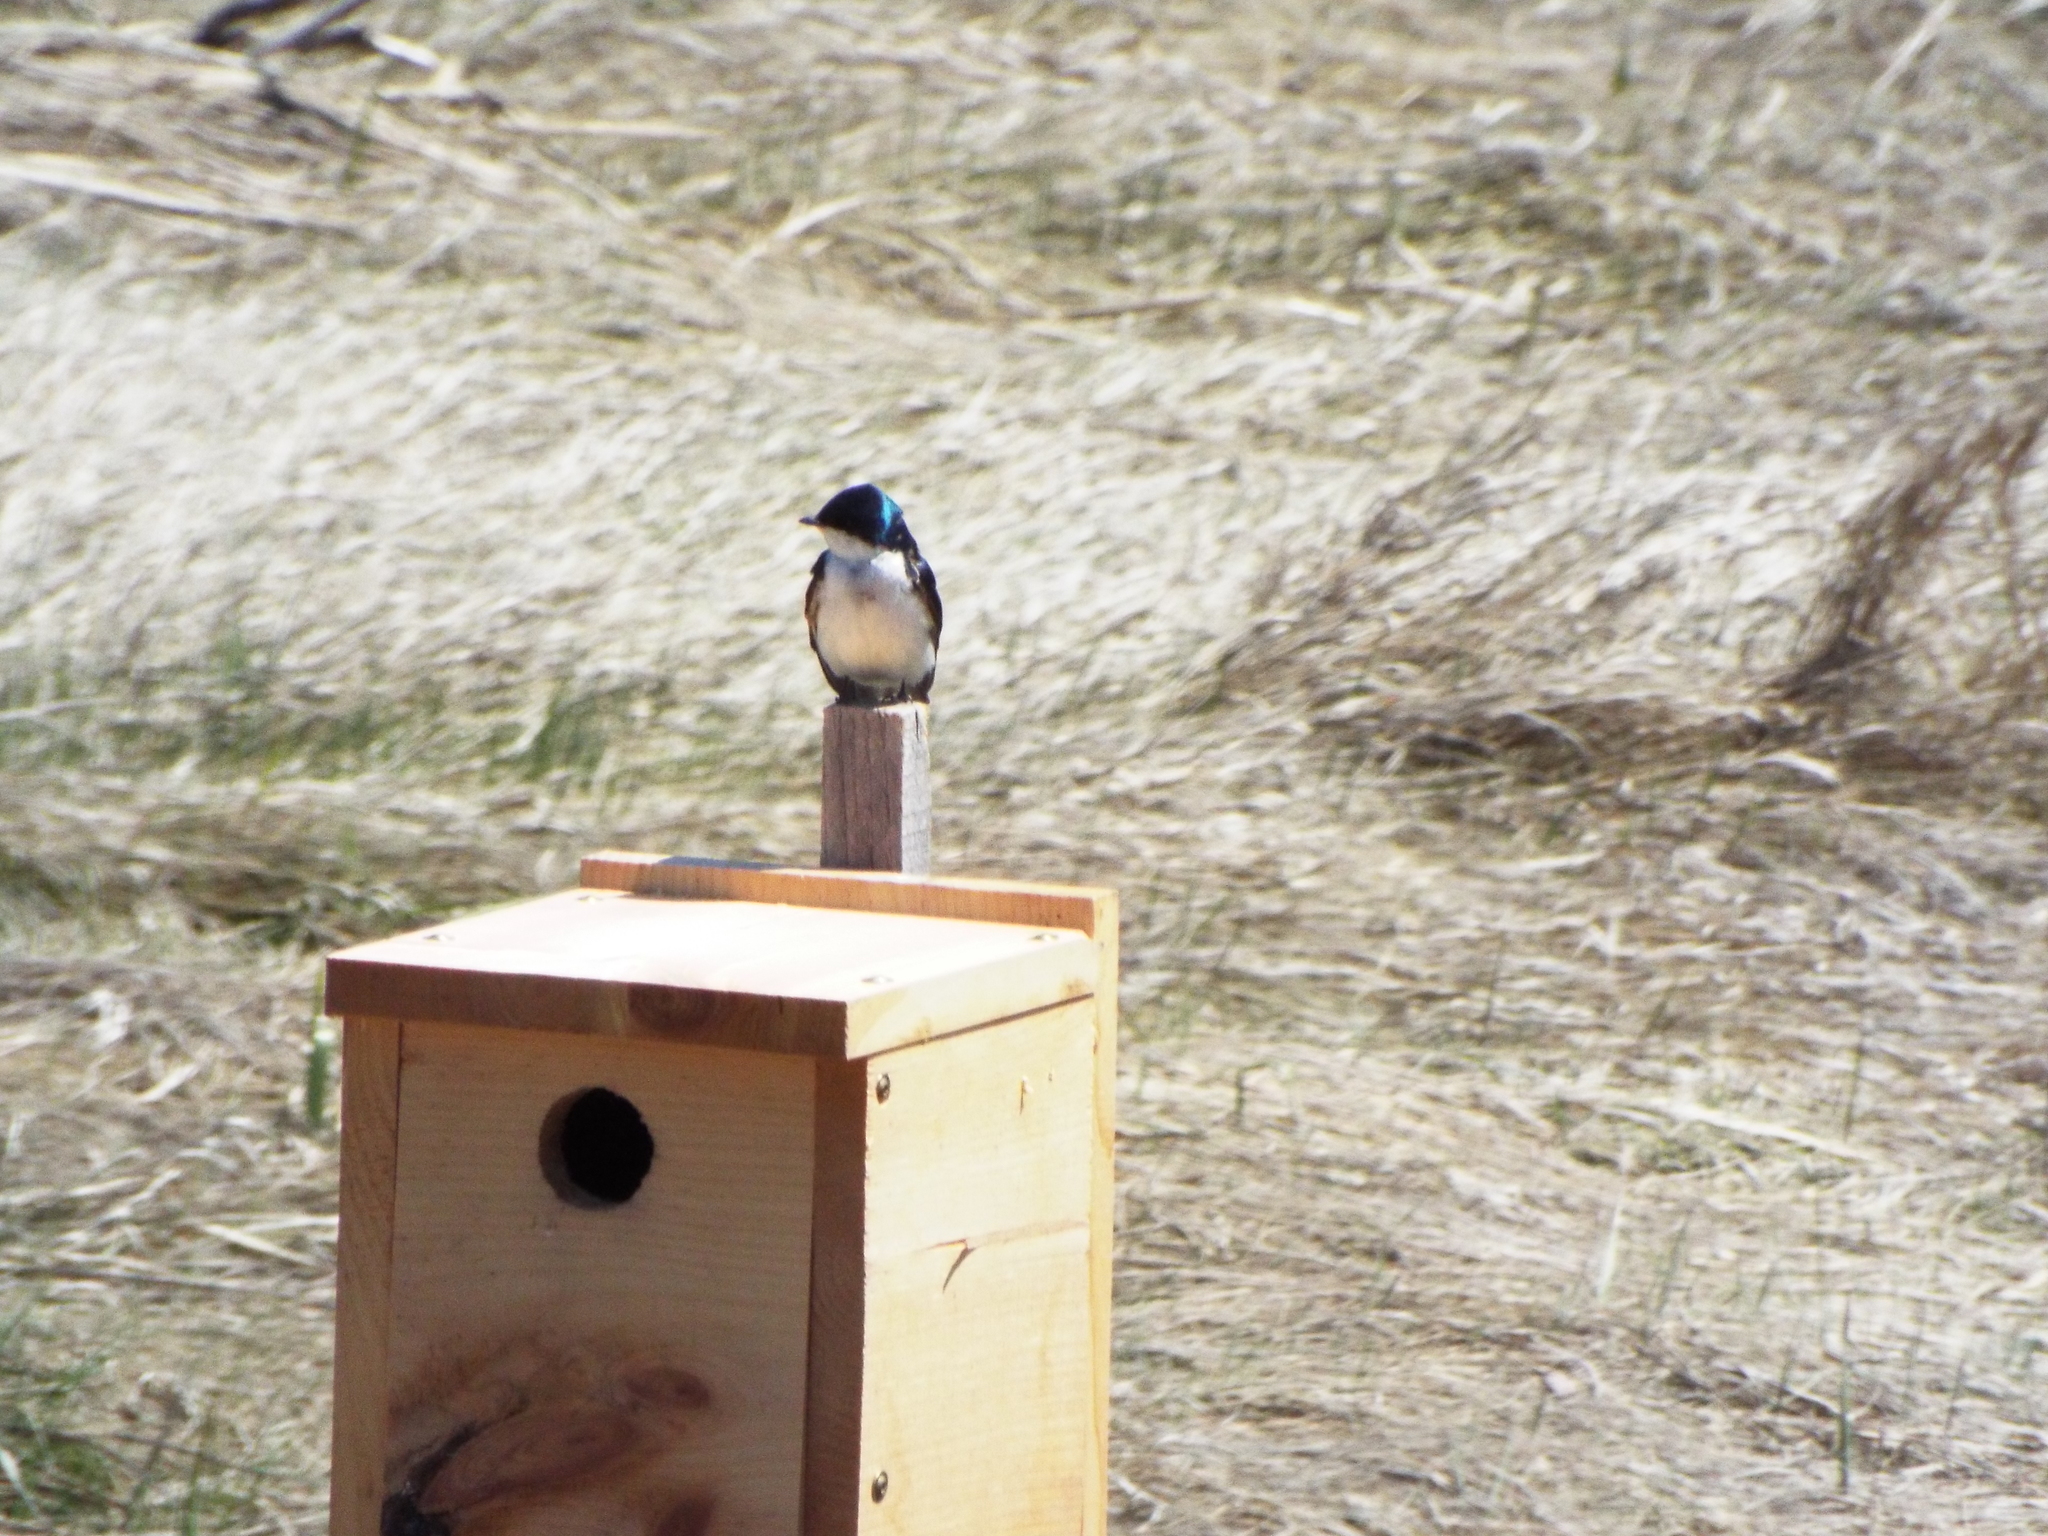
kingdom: Animalia
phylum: Chordata
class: Aves
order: Passeriformes
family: Hirundinidae
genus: Tachycineta
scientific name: Tachycineta bicolor
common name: Tree swallow
